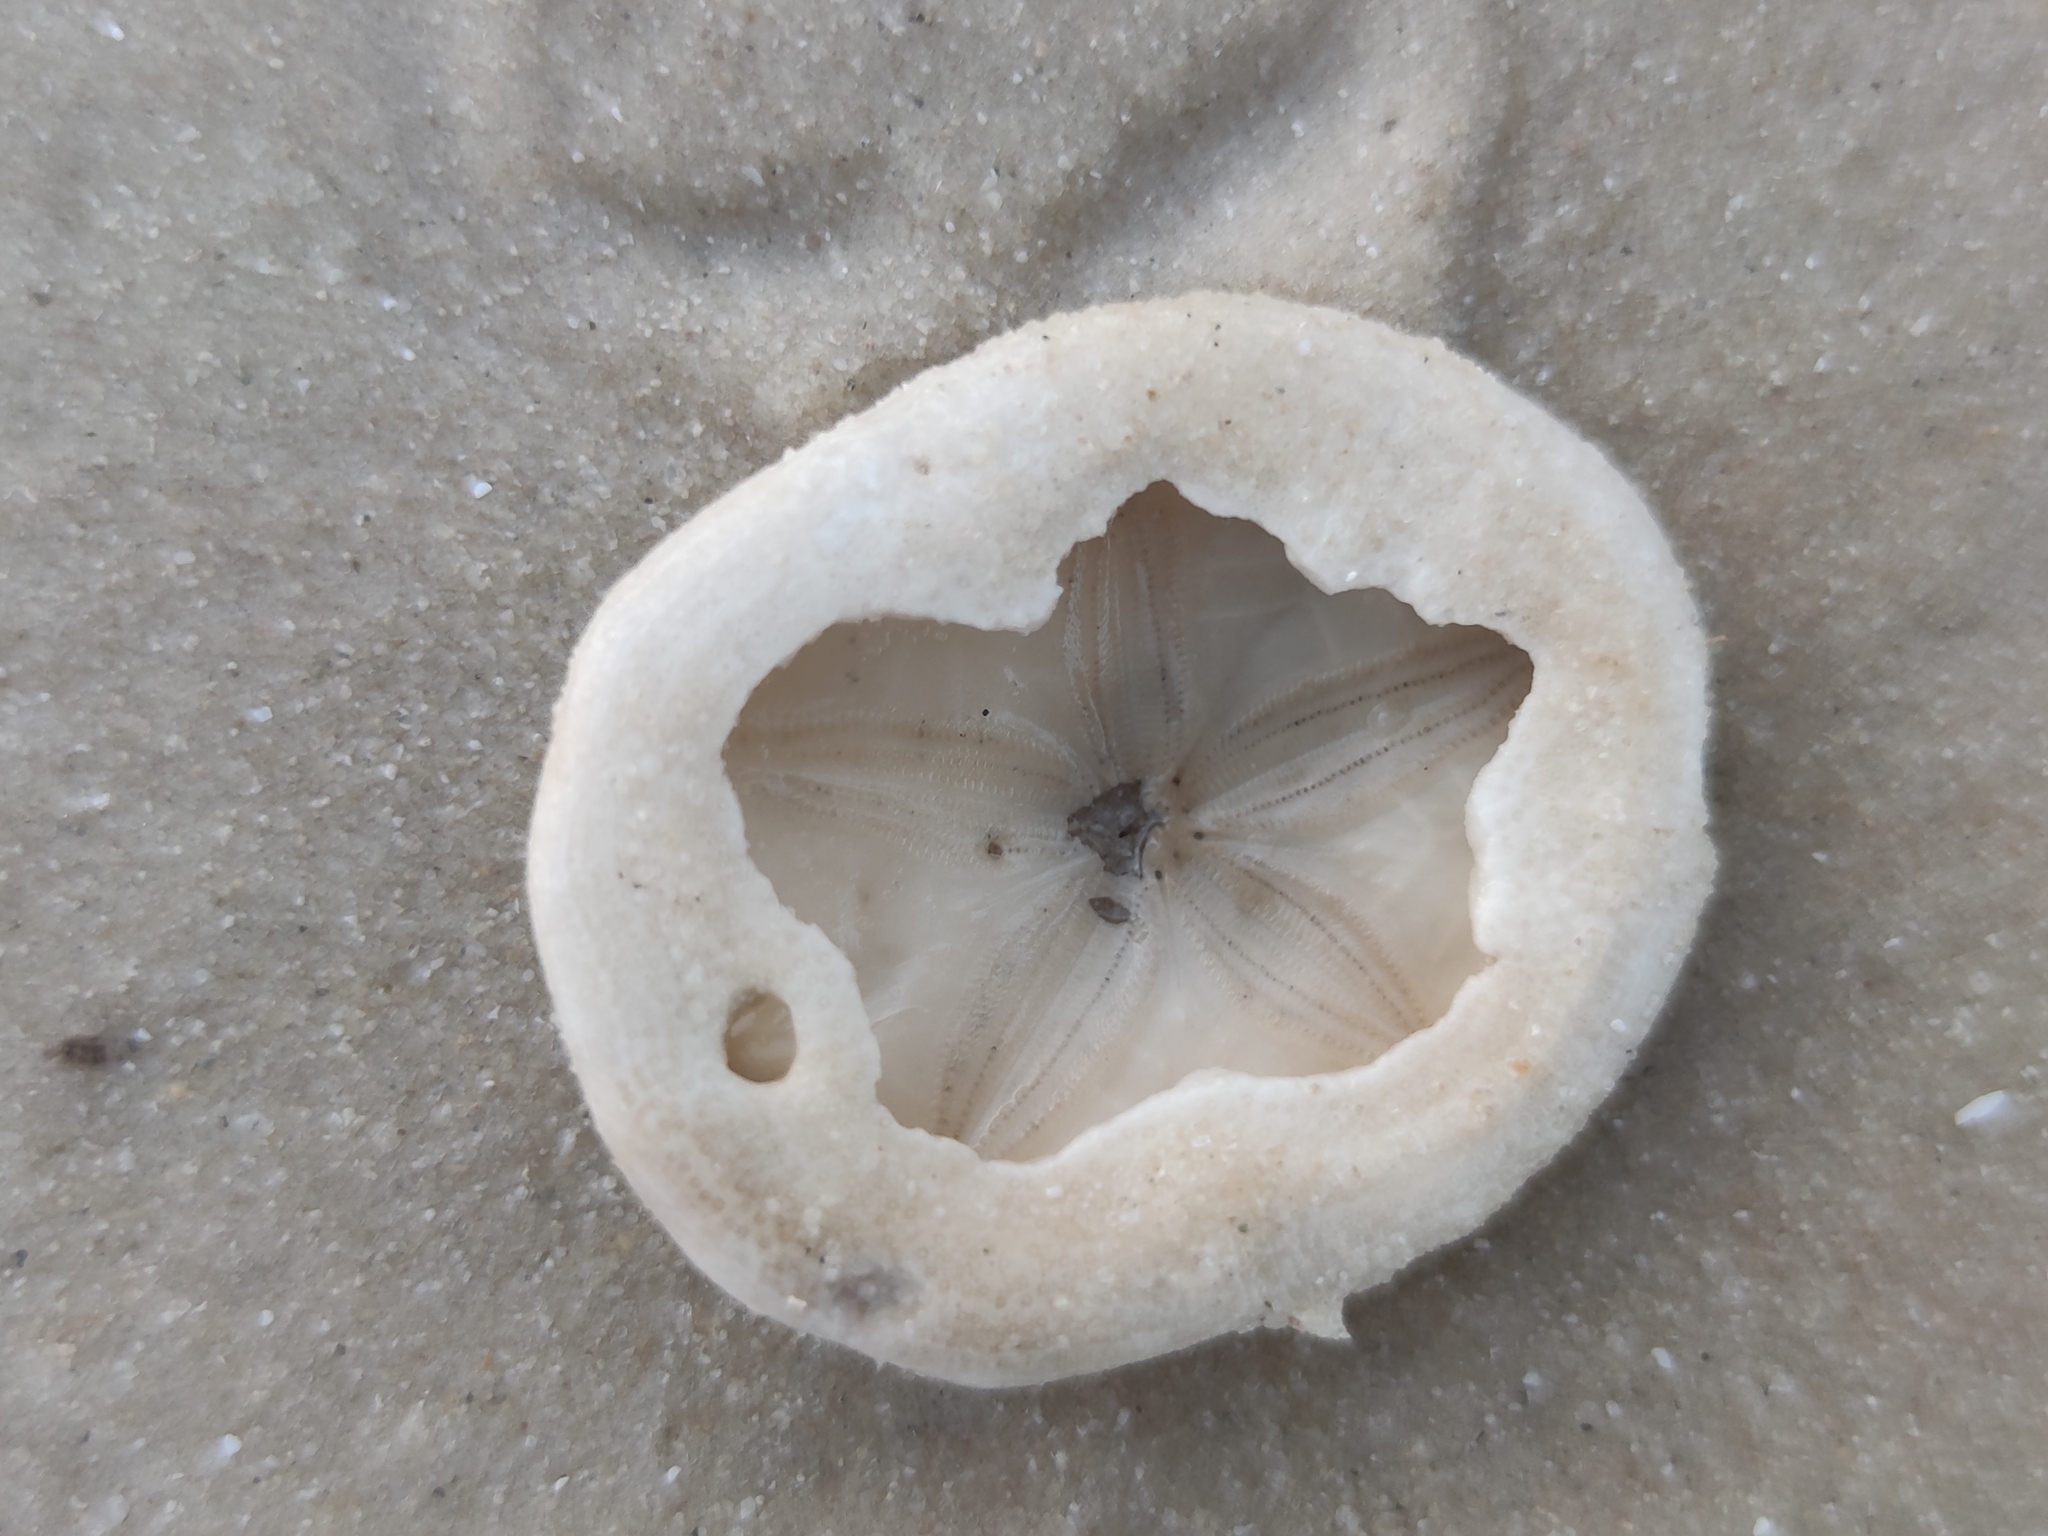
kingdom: Animalia
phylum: Echinodermata
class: Echinoidea
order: Echinolampadacea
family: Laganidae
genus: Jacksonaster
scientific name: Jacksonaster depressus
